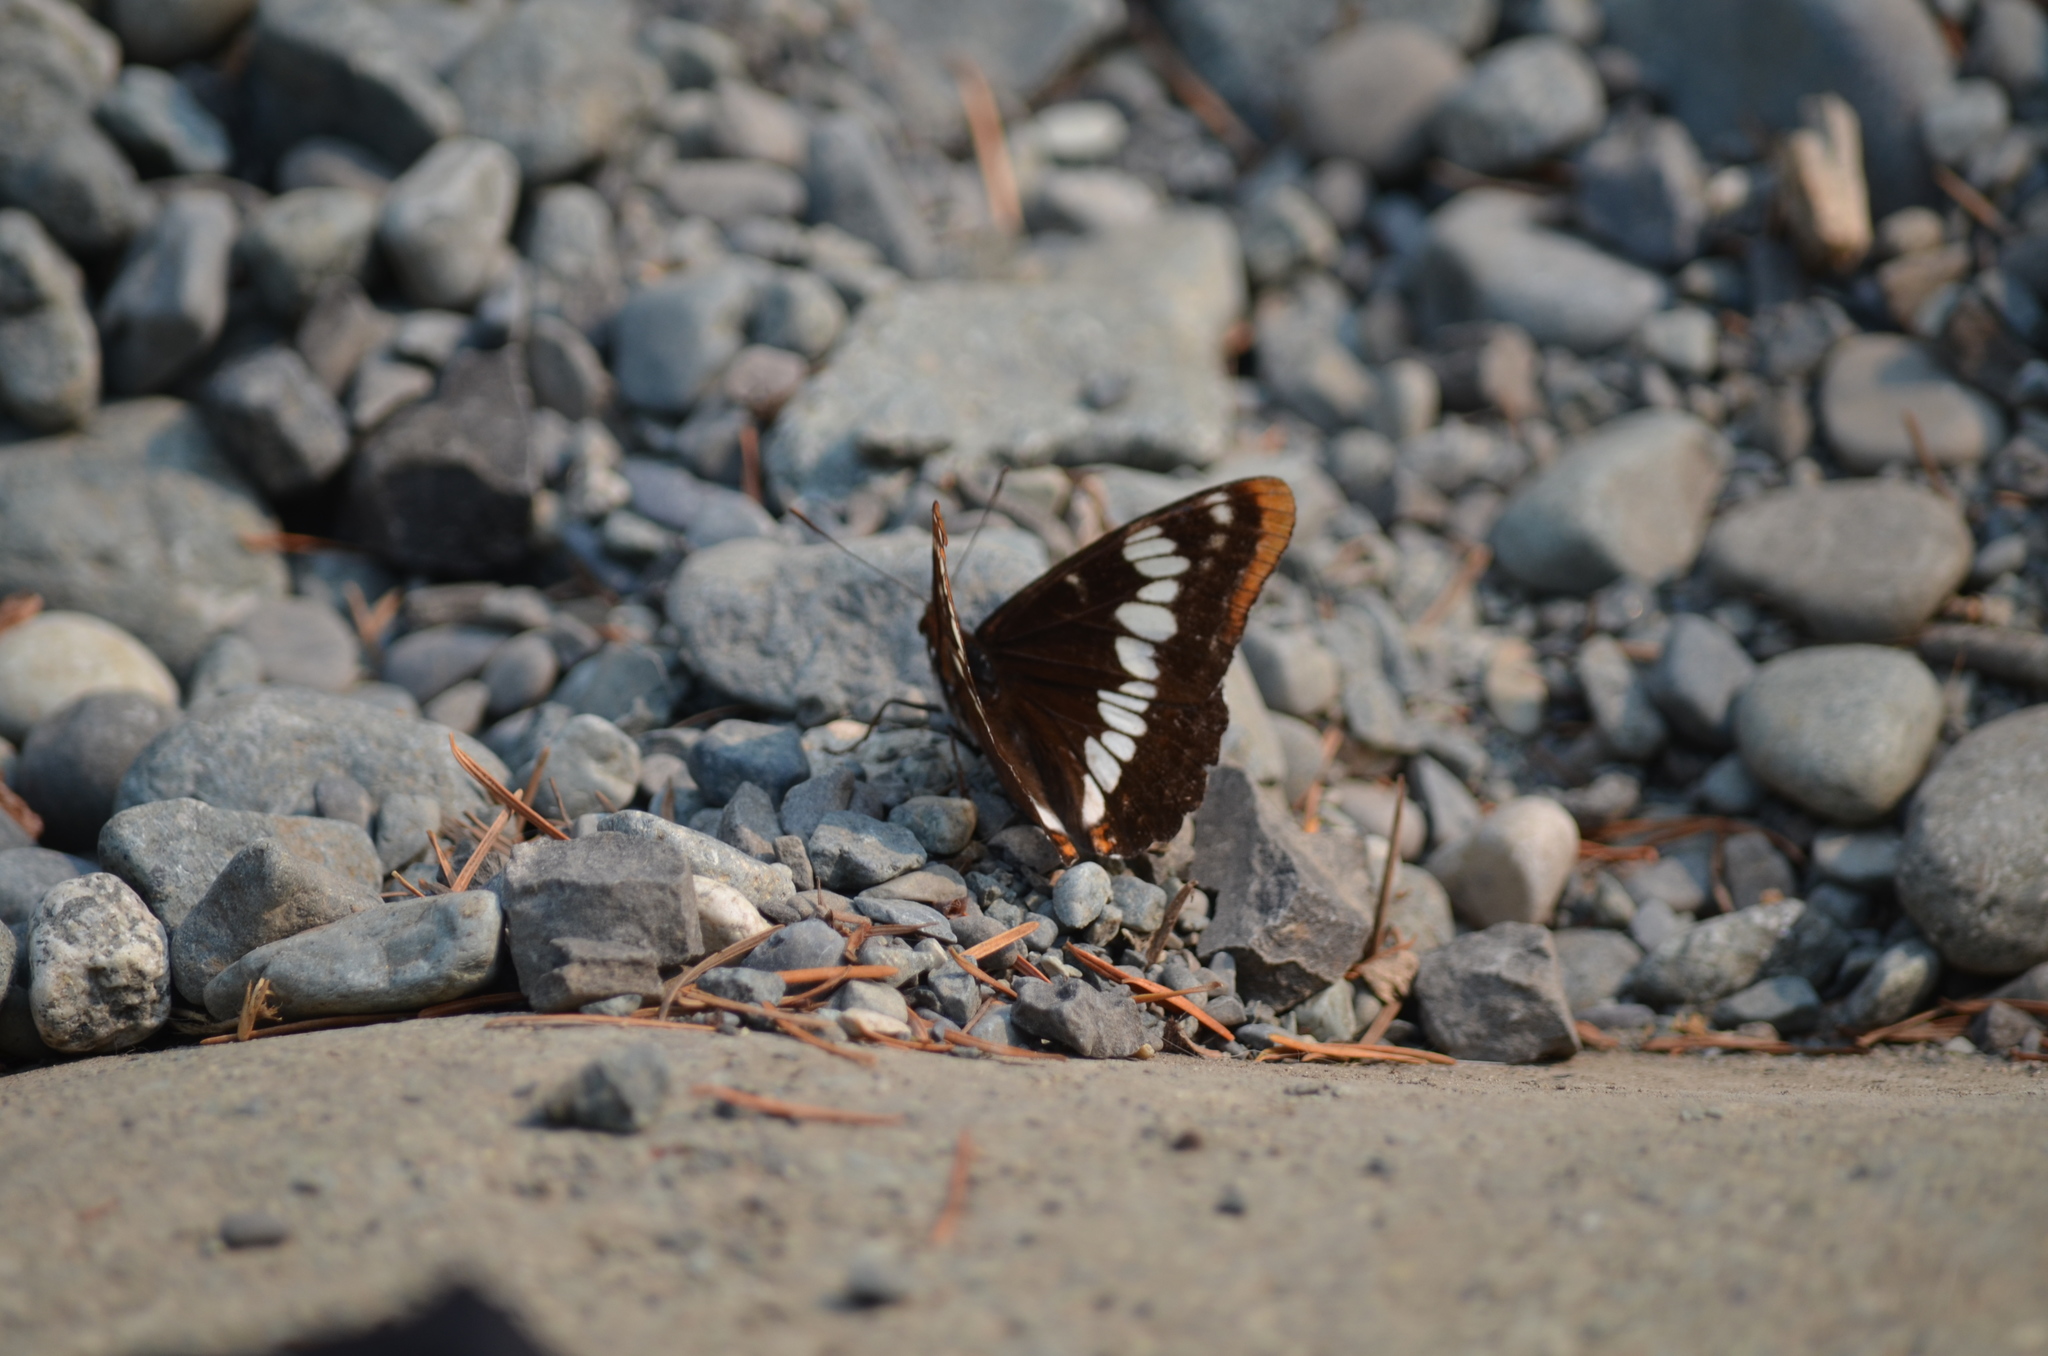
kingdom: Animalia
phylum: Arthropoda
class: Insecta
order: Lepidoptera
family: Nymphalidae
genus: Limenitis
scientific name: Limenitis lorquini
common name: Lorquin's admiral
